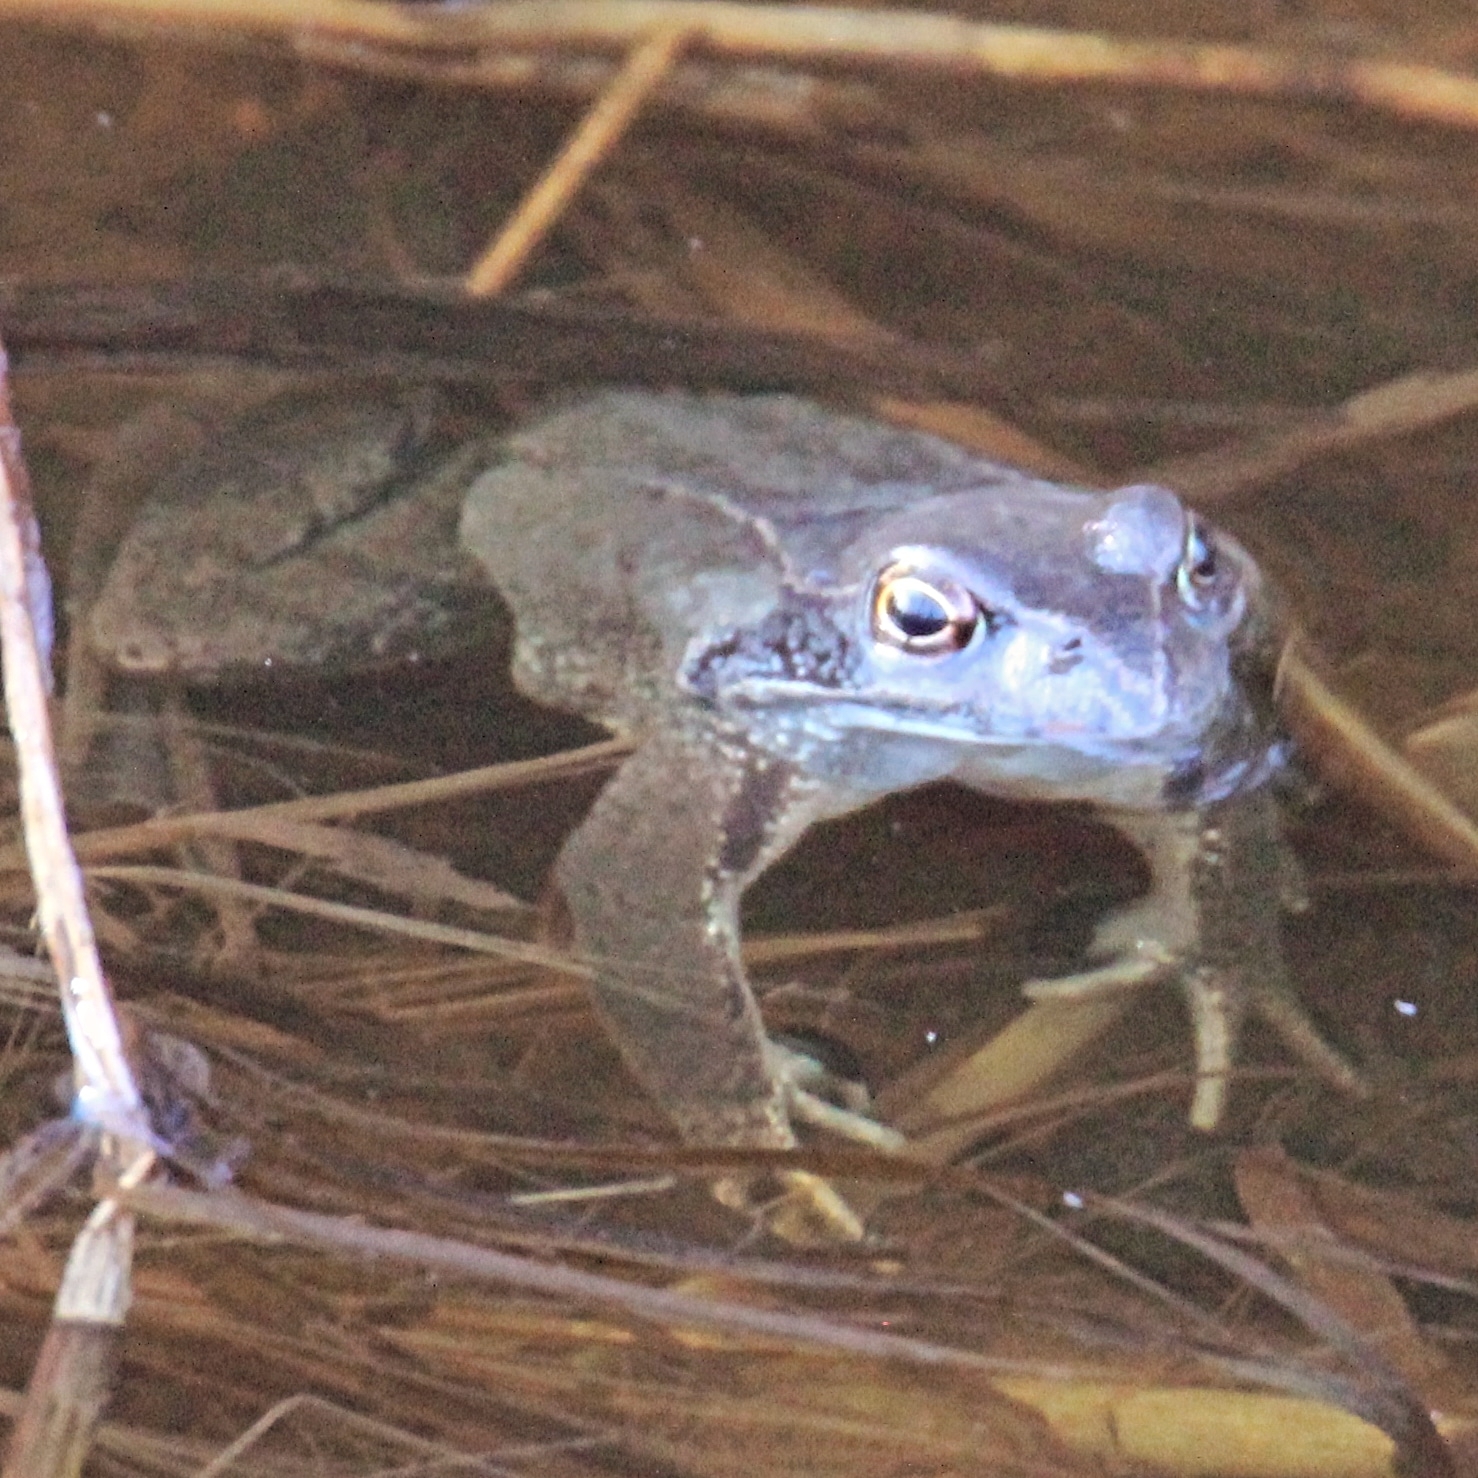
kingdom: Animalia
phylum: Chordata
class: Amphibia
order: Anura
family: Ranidae
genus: Rana
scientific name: Rana temporaria
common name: Common frog
